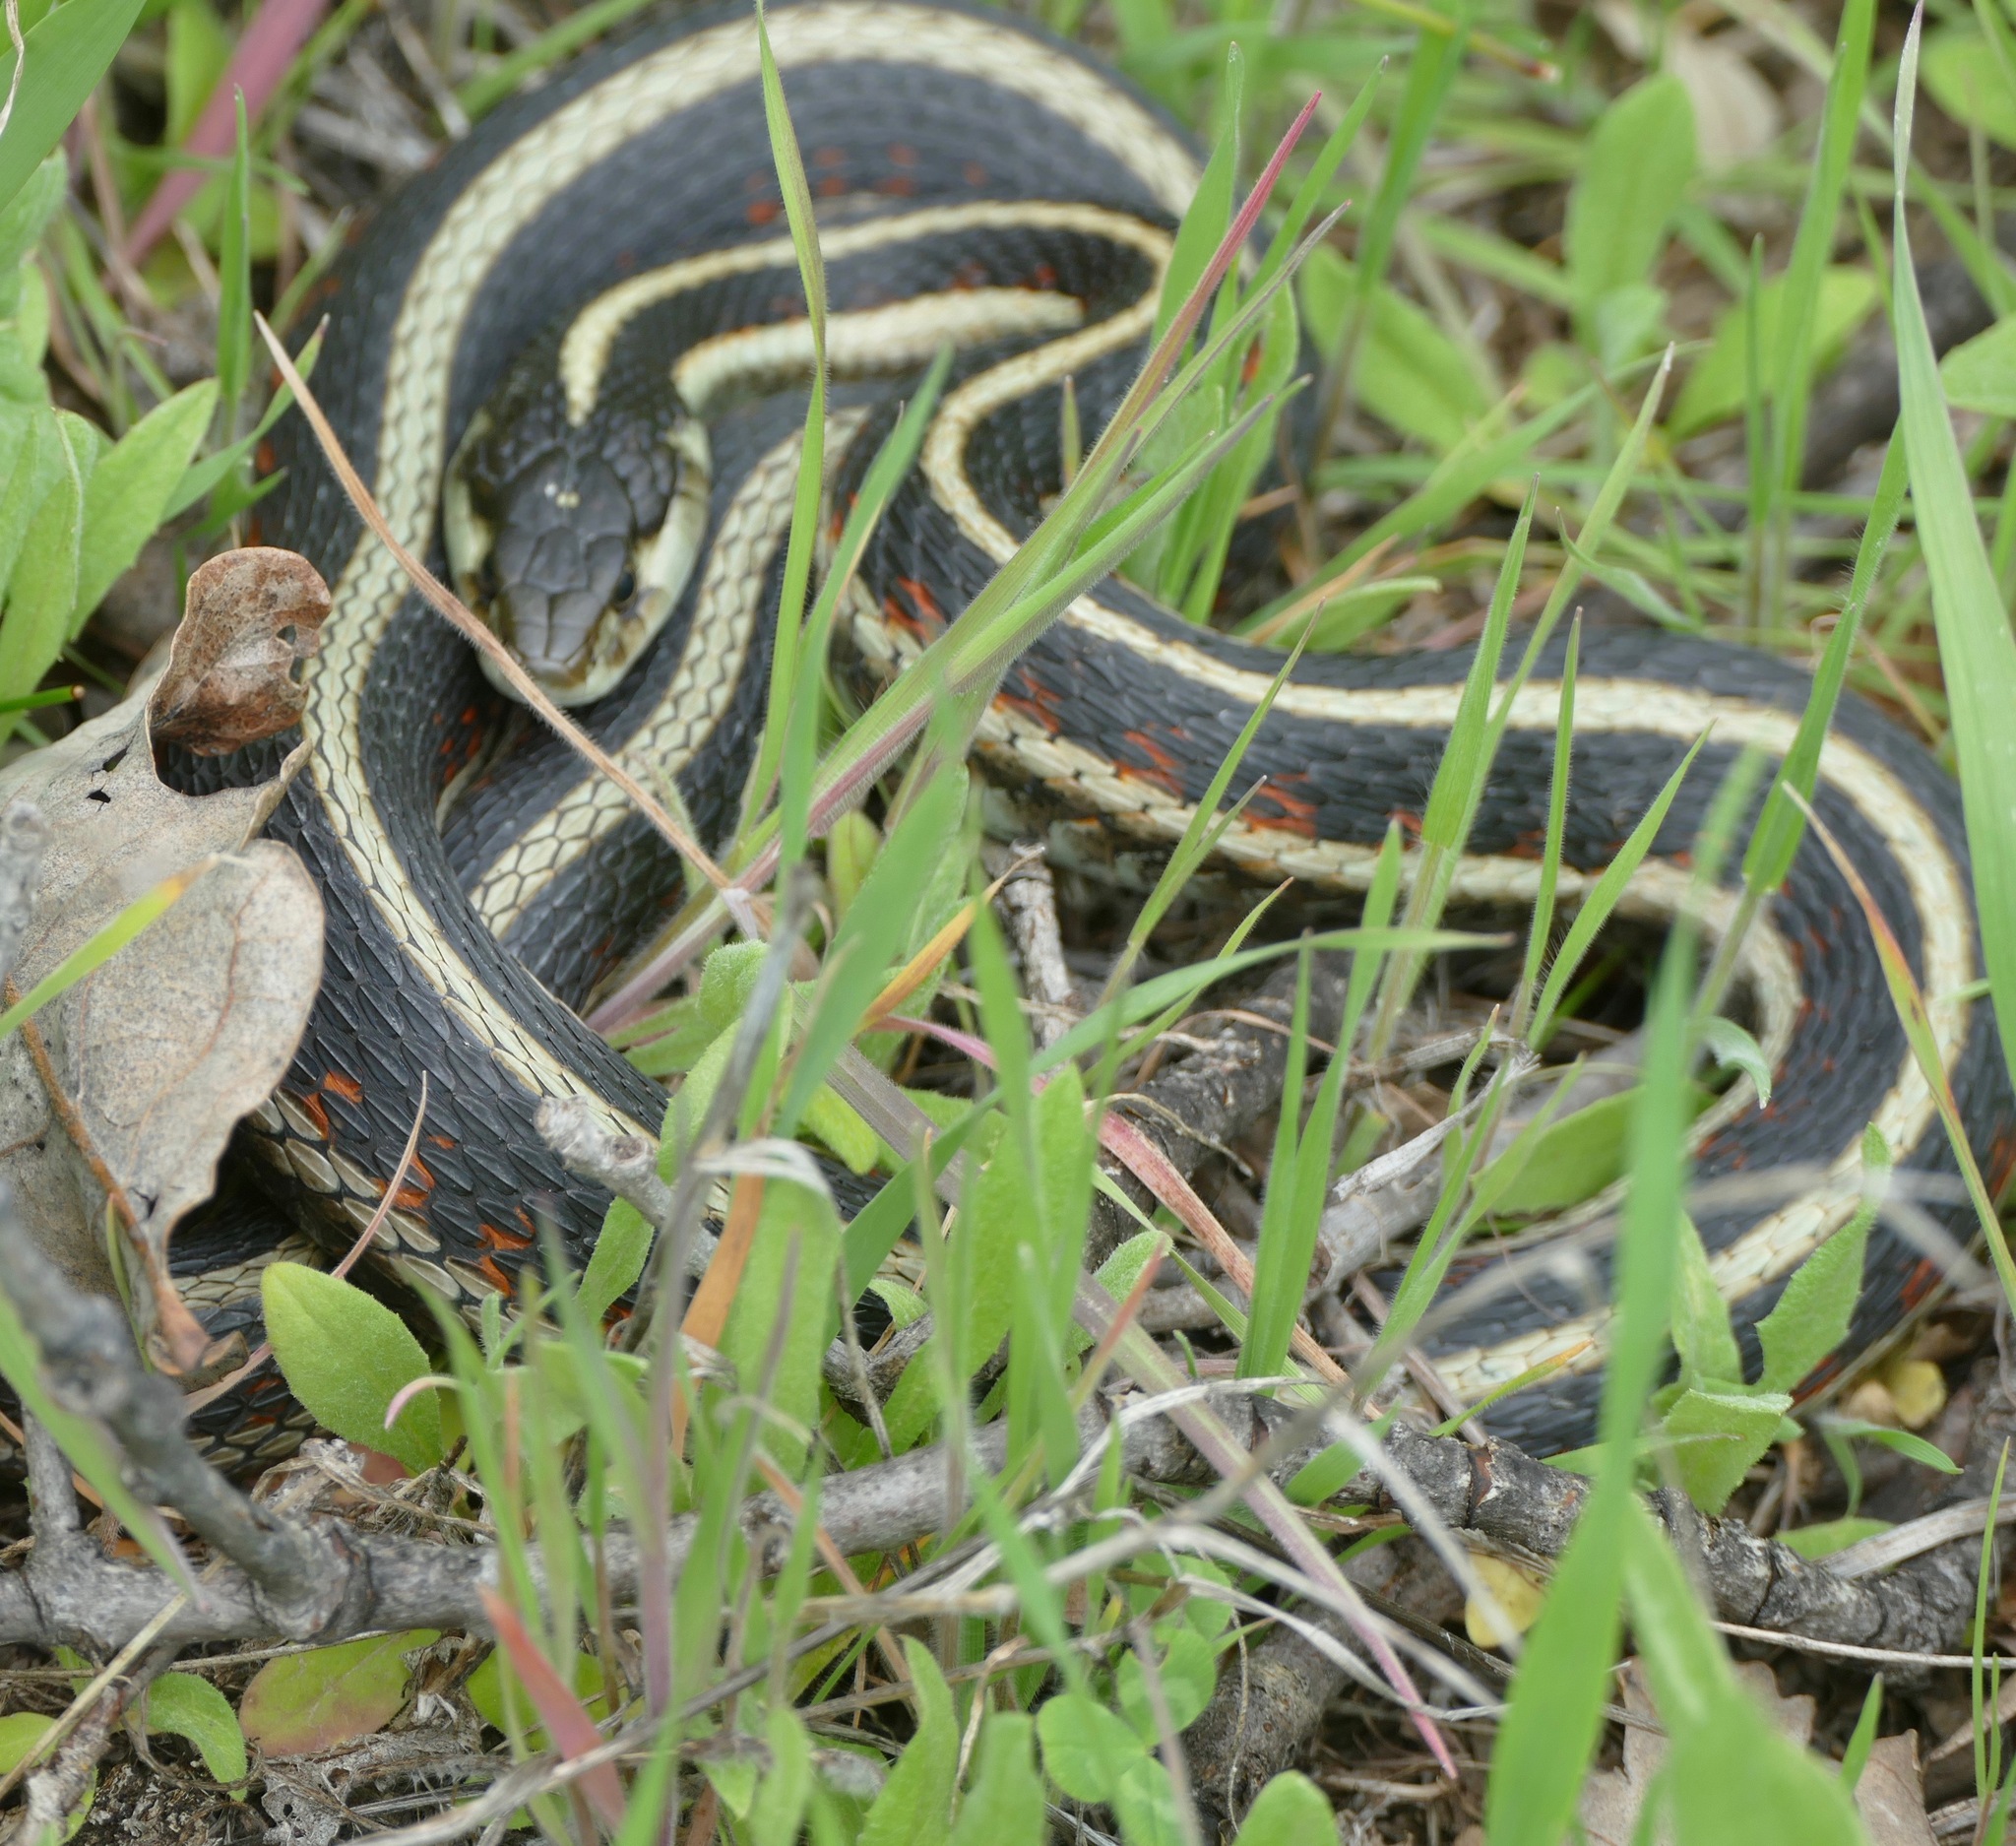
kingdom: Animalia
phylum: Chordata
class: Squamata
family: Colubridae
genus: Thamnophis
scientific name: Thamnophis elegans
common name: Western terrestrial garter snake
